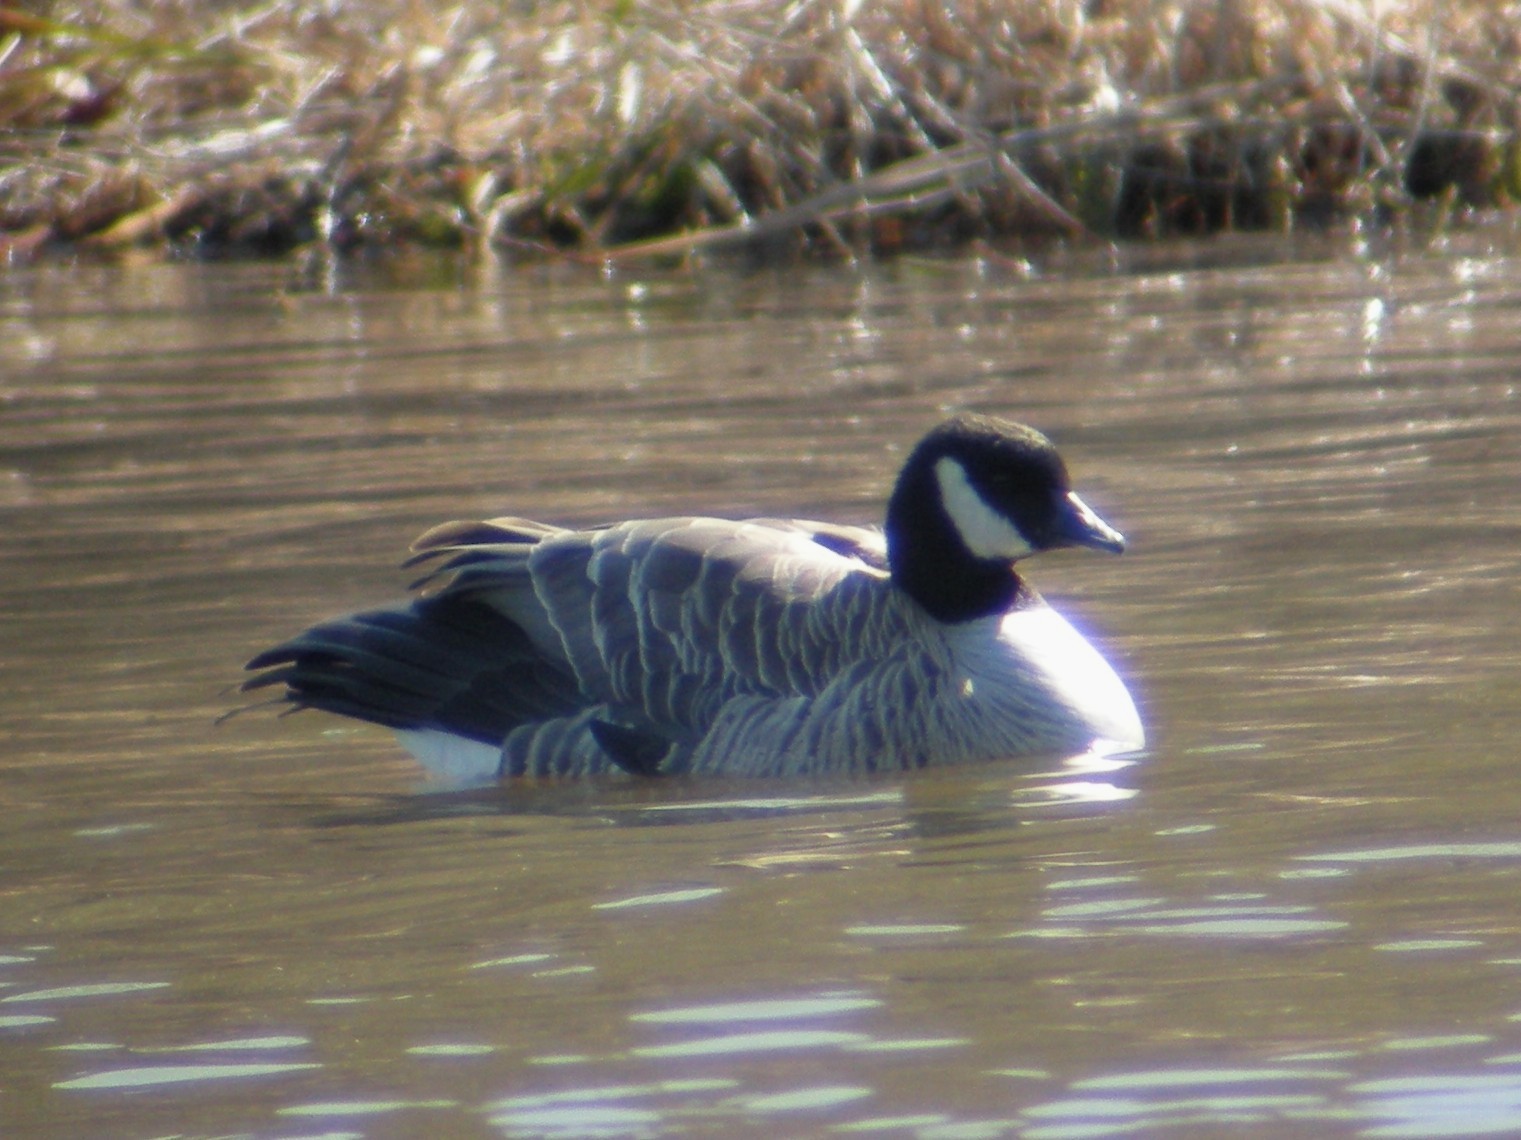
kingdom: Animalia
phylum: Chordata
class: Aves
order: Anseriformes
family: Anatidae
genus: Branta
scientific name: Branta hutchinsii
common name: Cackling goose
